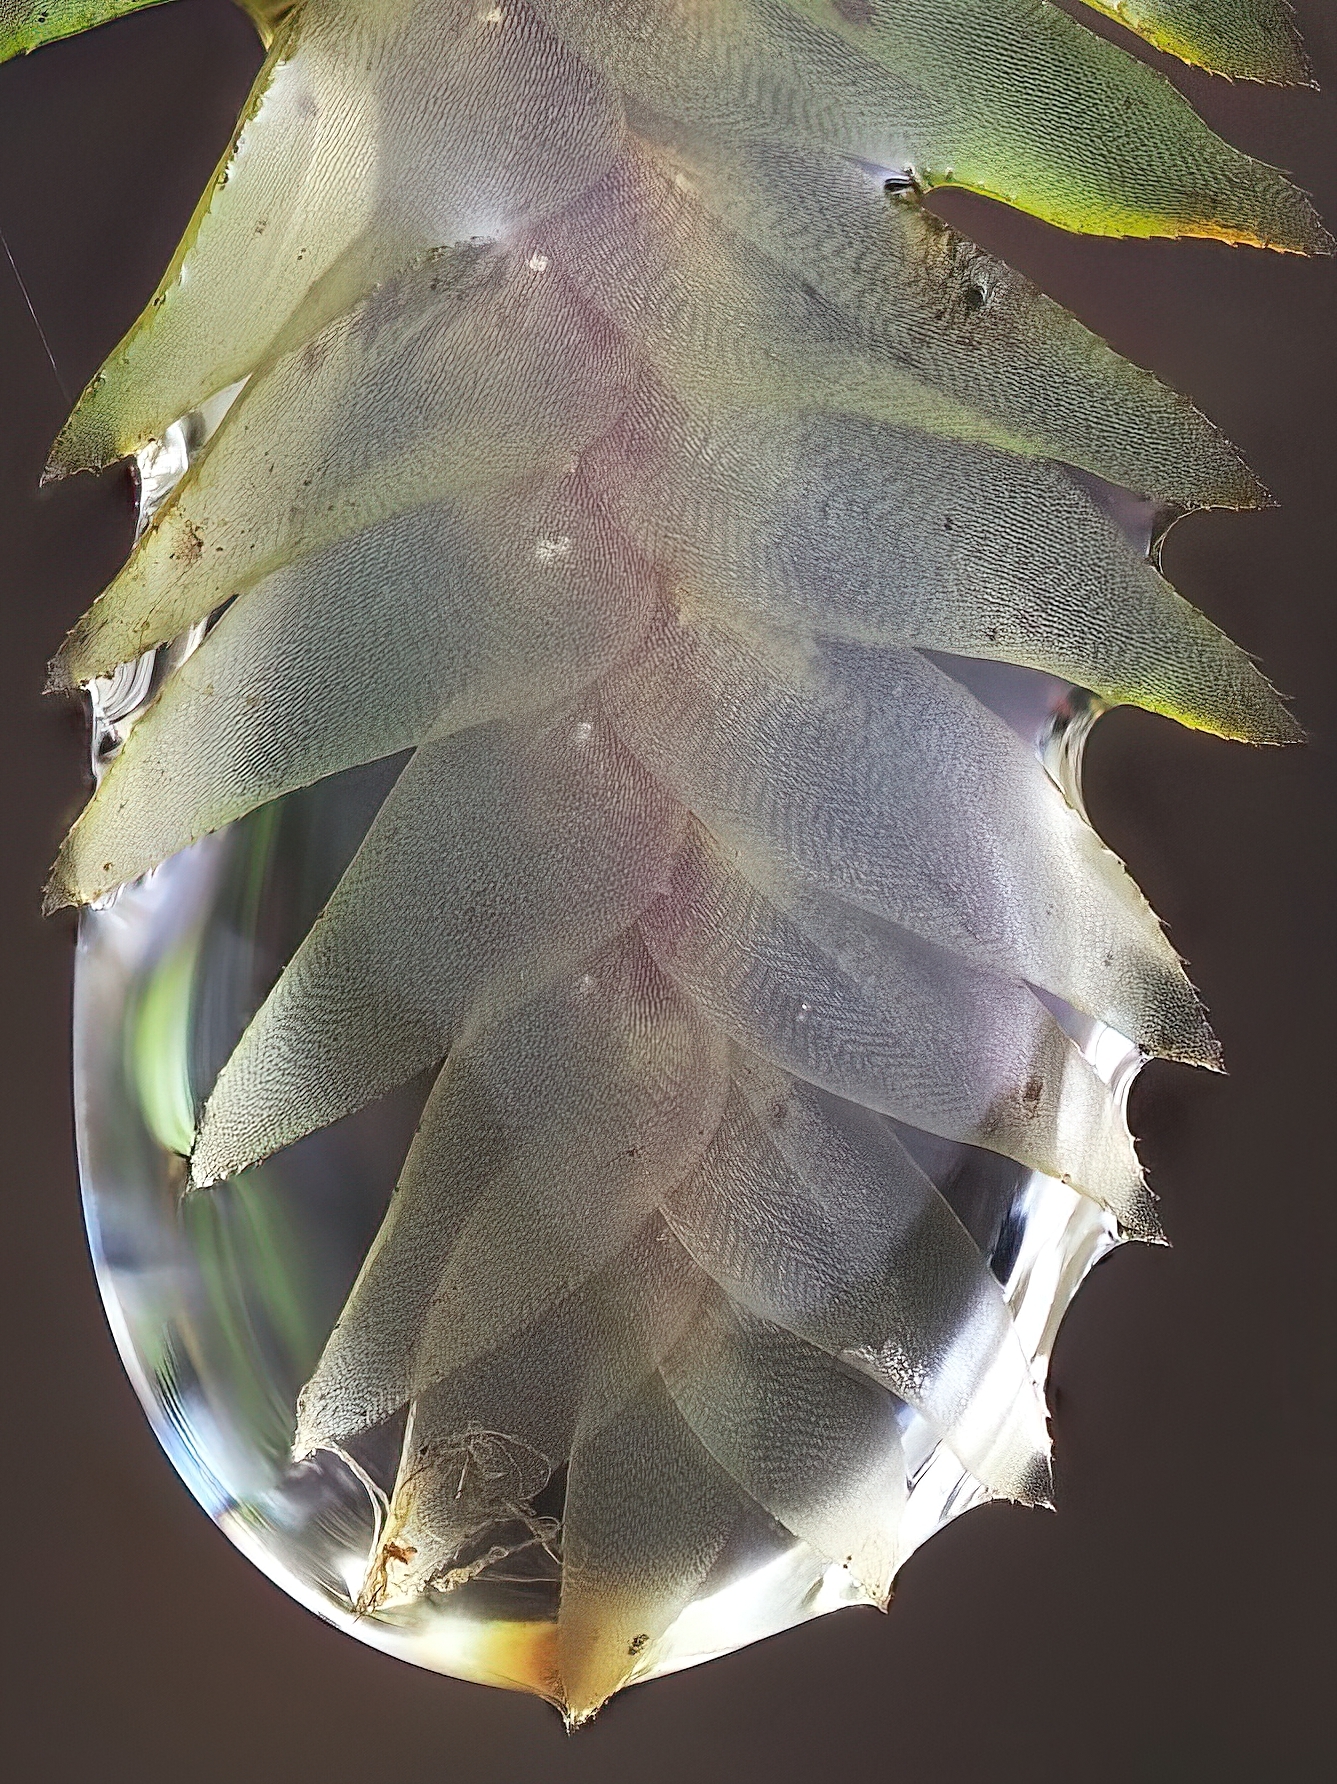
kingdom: Plantae
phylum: Bryophyta
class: Bryopsida
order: Hypopterygiales
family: Hypopterygiaceae
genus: Cyathophorum
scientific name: Cyathophorum bulbosum
